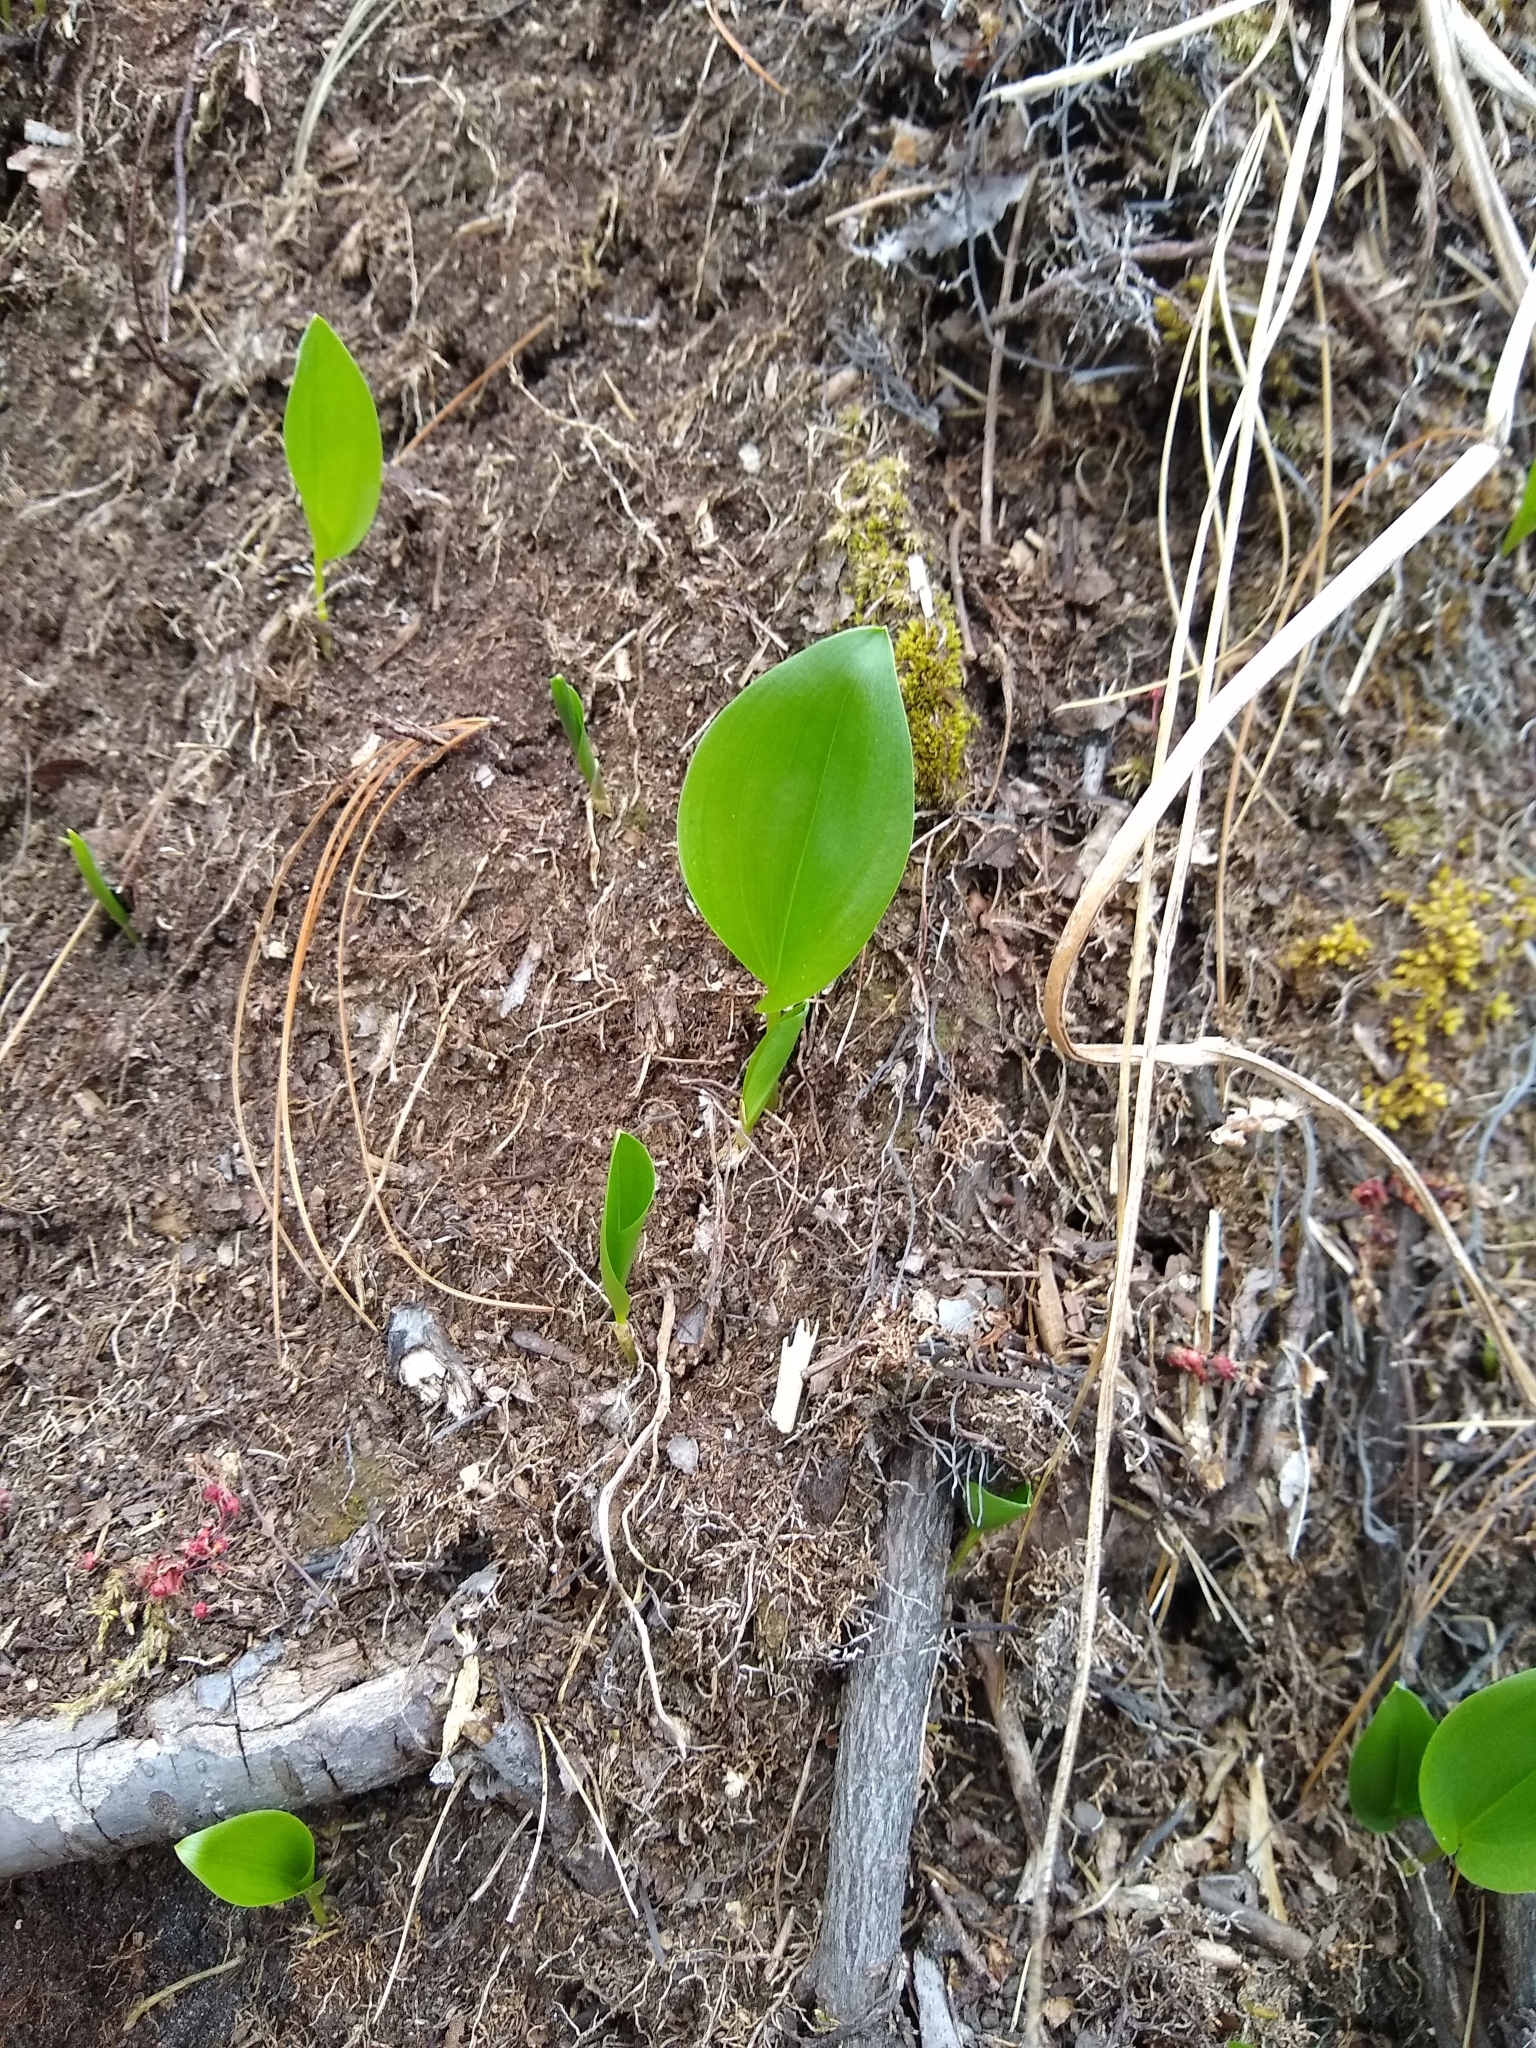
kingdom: Plantae
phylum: Tracheophyta
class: Liliopsida
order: Asparagales
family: Asparagaceae
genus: Maianthemum
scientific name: Maianthemum canadense
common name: False lily-of-the-valley
